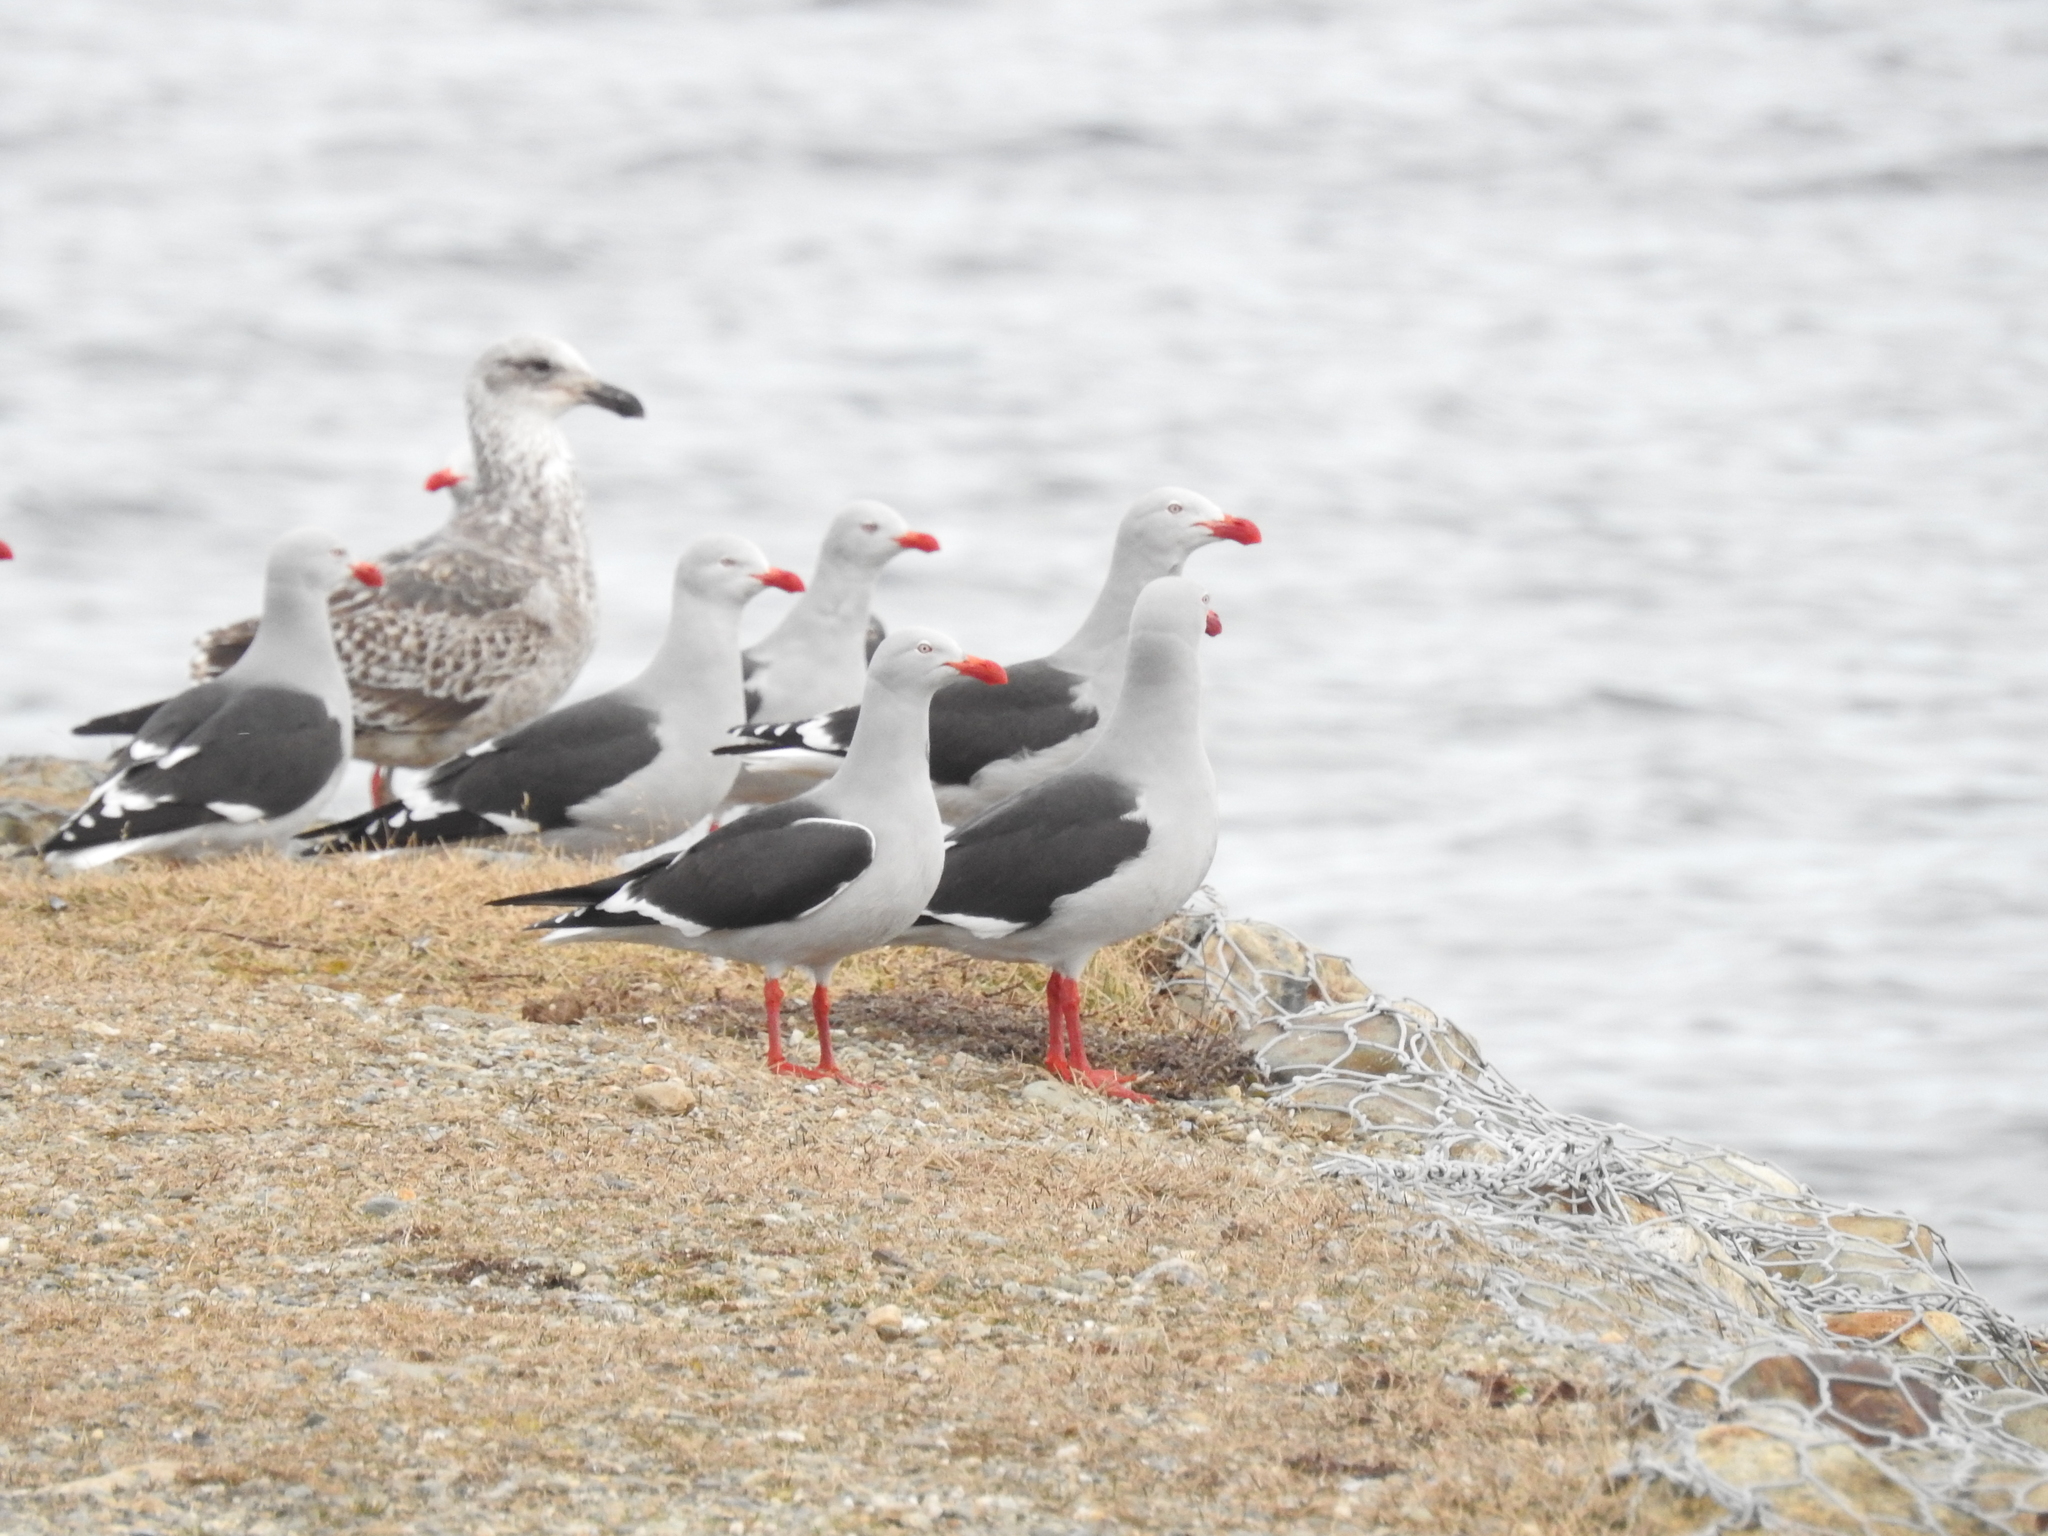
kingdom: Animalia
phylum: Chordata
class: Aves
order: Charadriiformes
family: Laridae
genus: Leucophaeus
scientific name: Leucophaeus scoresbii
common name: Dolphin gull
